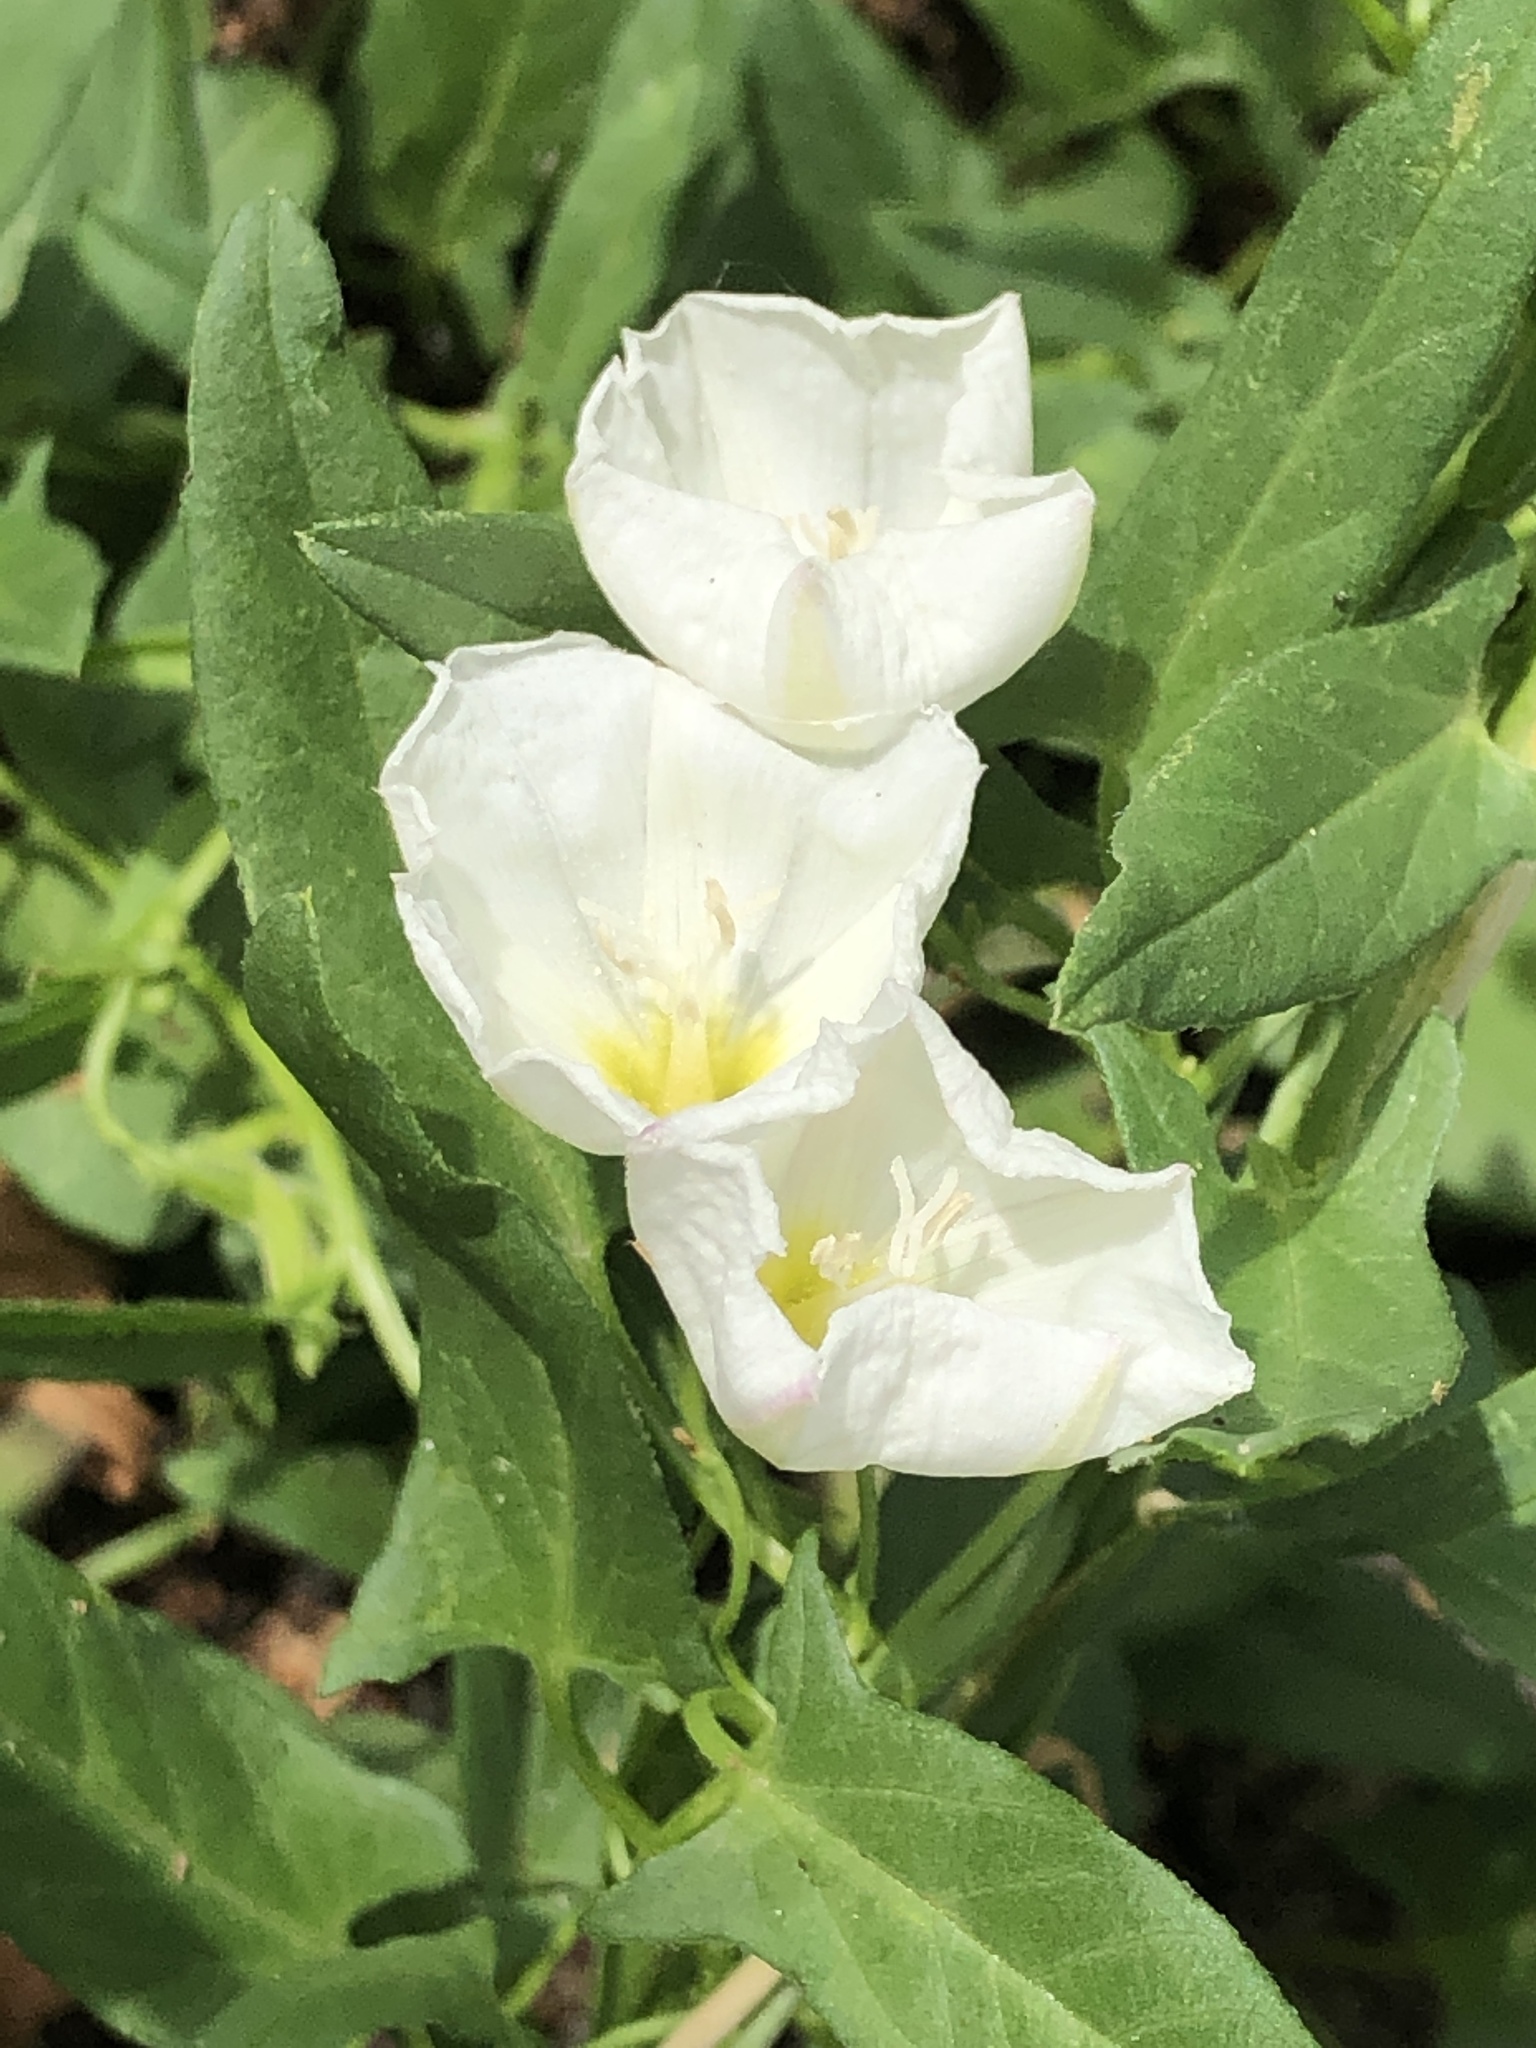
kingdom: Plantae
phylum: Tracheophyta
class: Magnoliopsida
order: Solanales
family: Convolvulaceae
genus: Convolvulus
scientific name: Convolvulus arvensis
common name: Field bindweed
